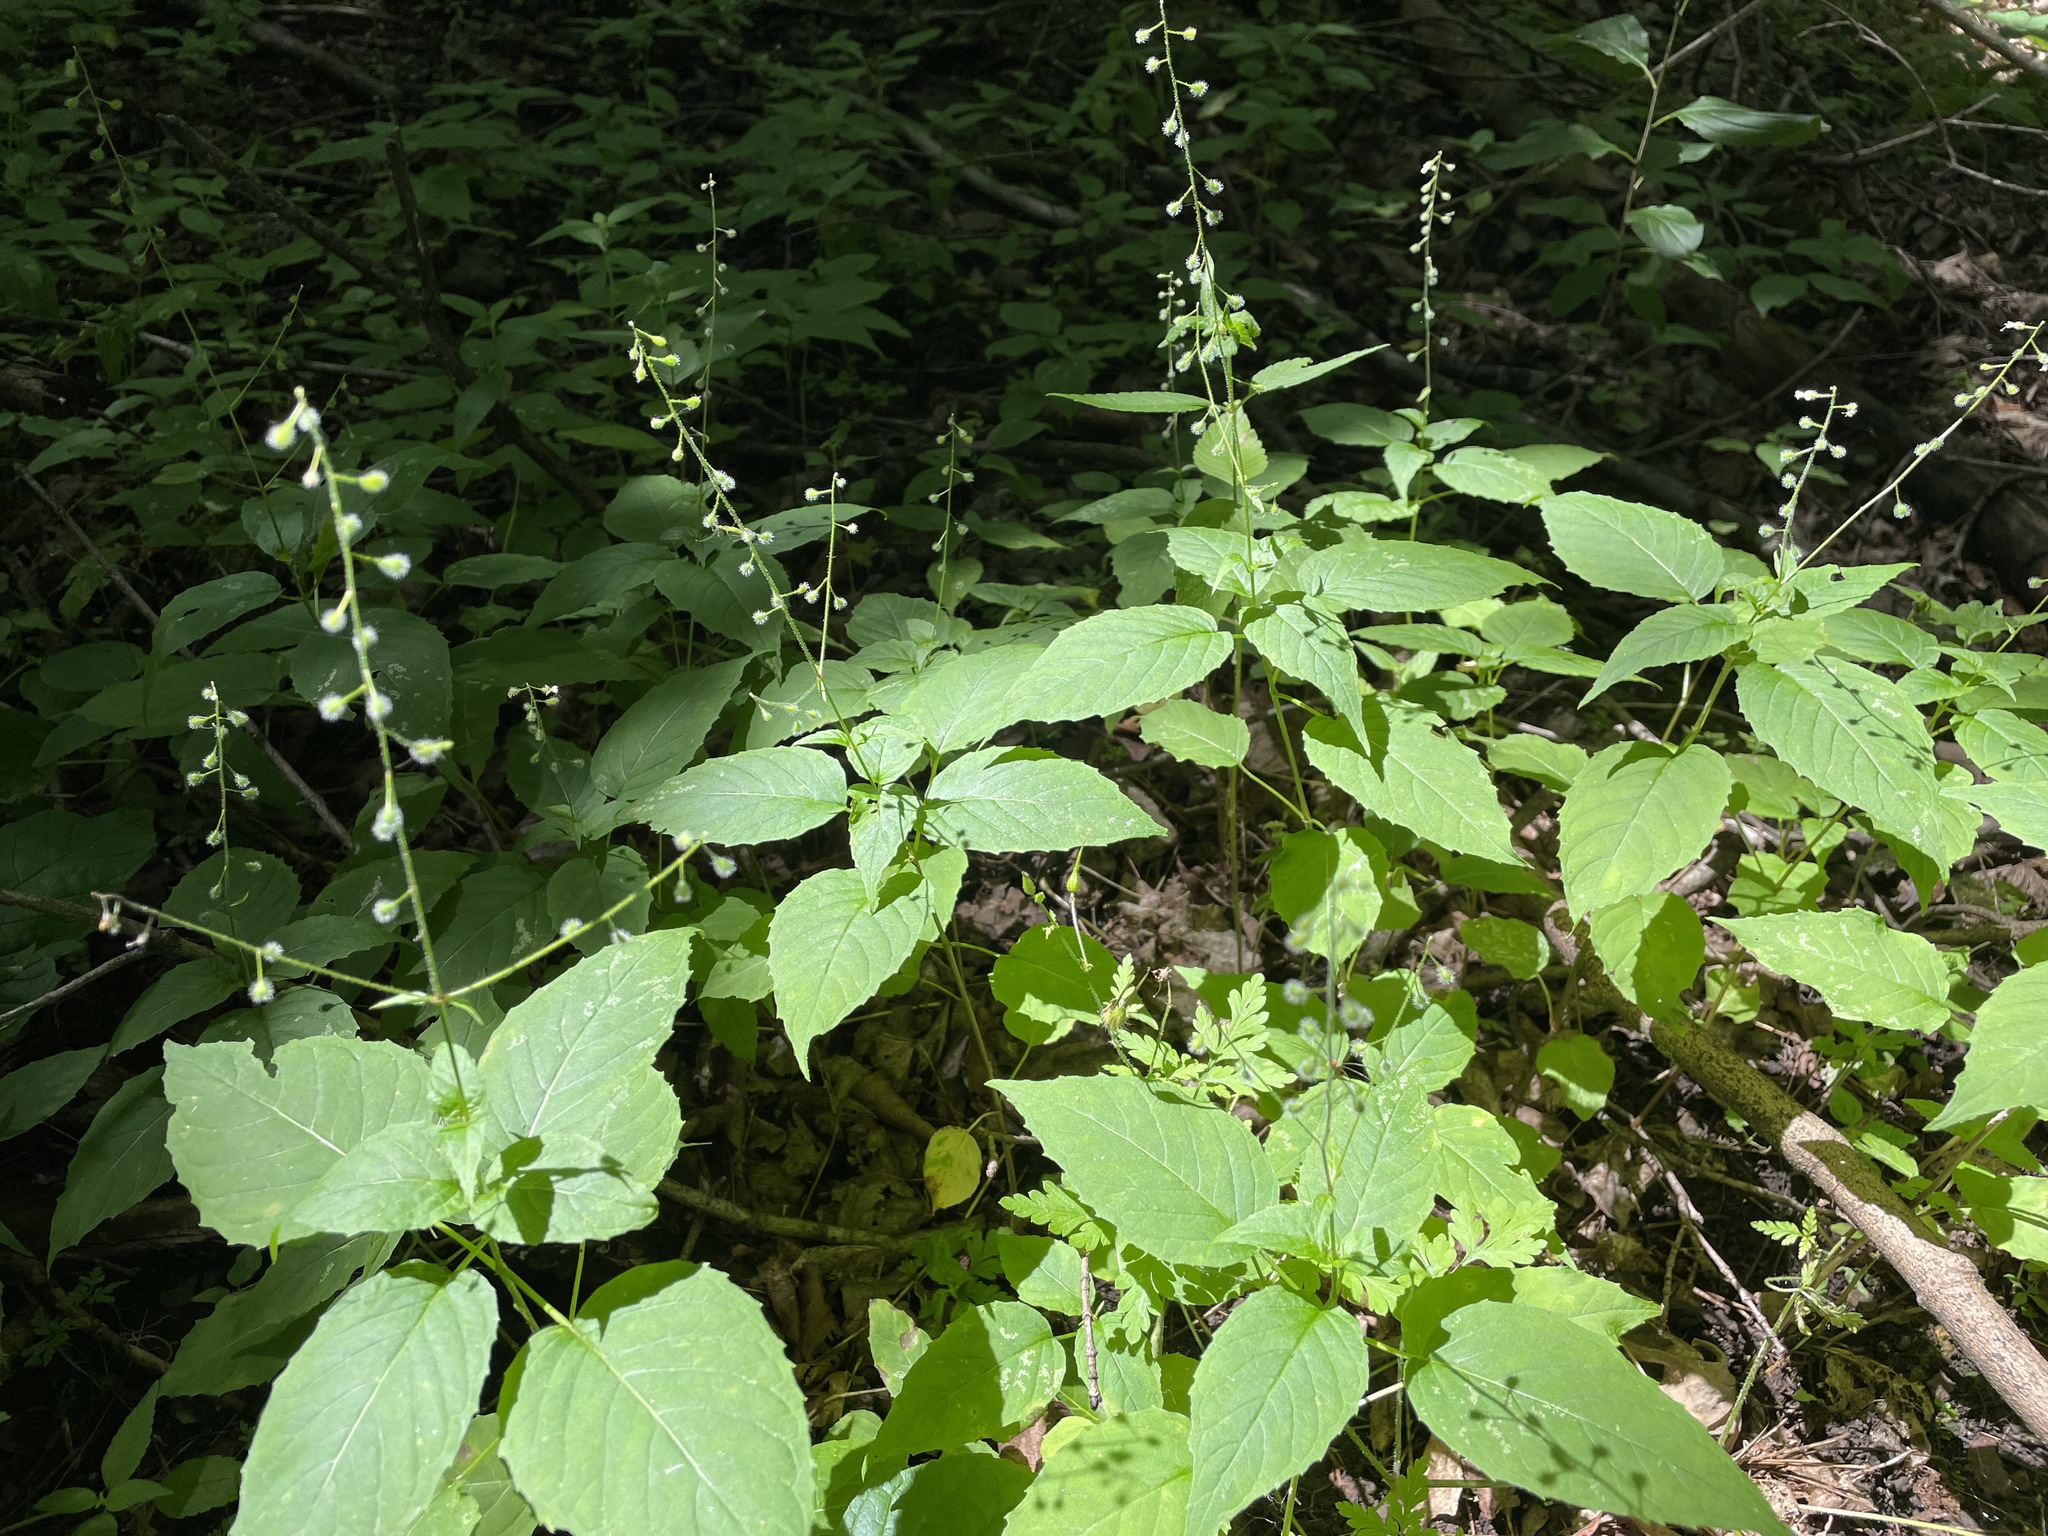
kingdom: Plantae
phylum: Tracheophyta
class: Magnoliopsida
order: Myrtales
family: Onagraceae
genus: Circaea
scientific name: Circaea canadensis
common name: Broad-leaved enchanter's nightshade
